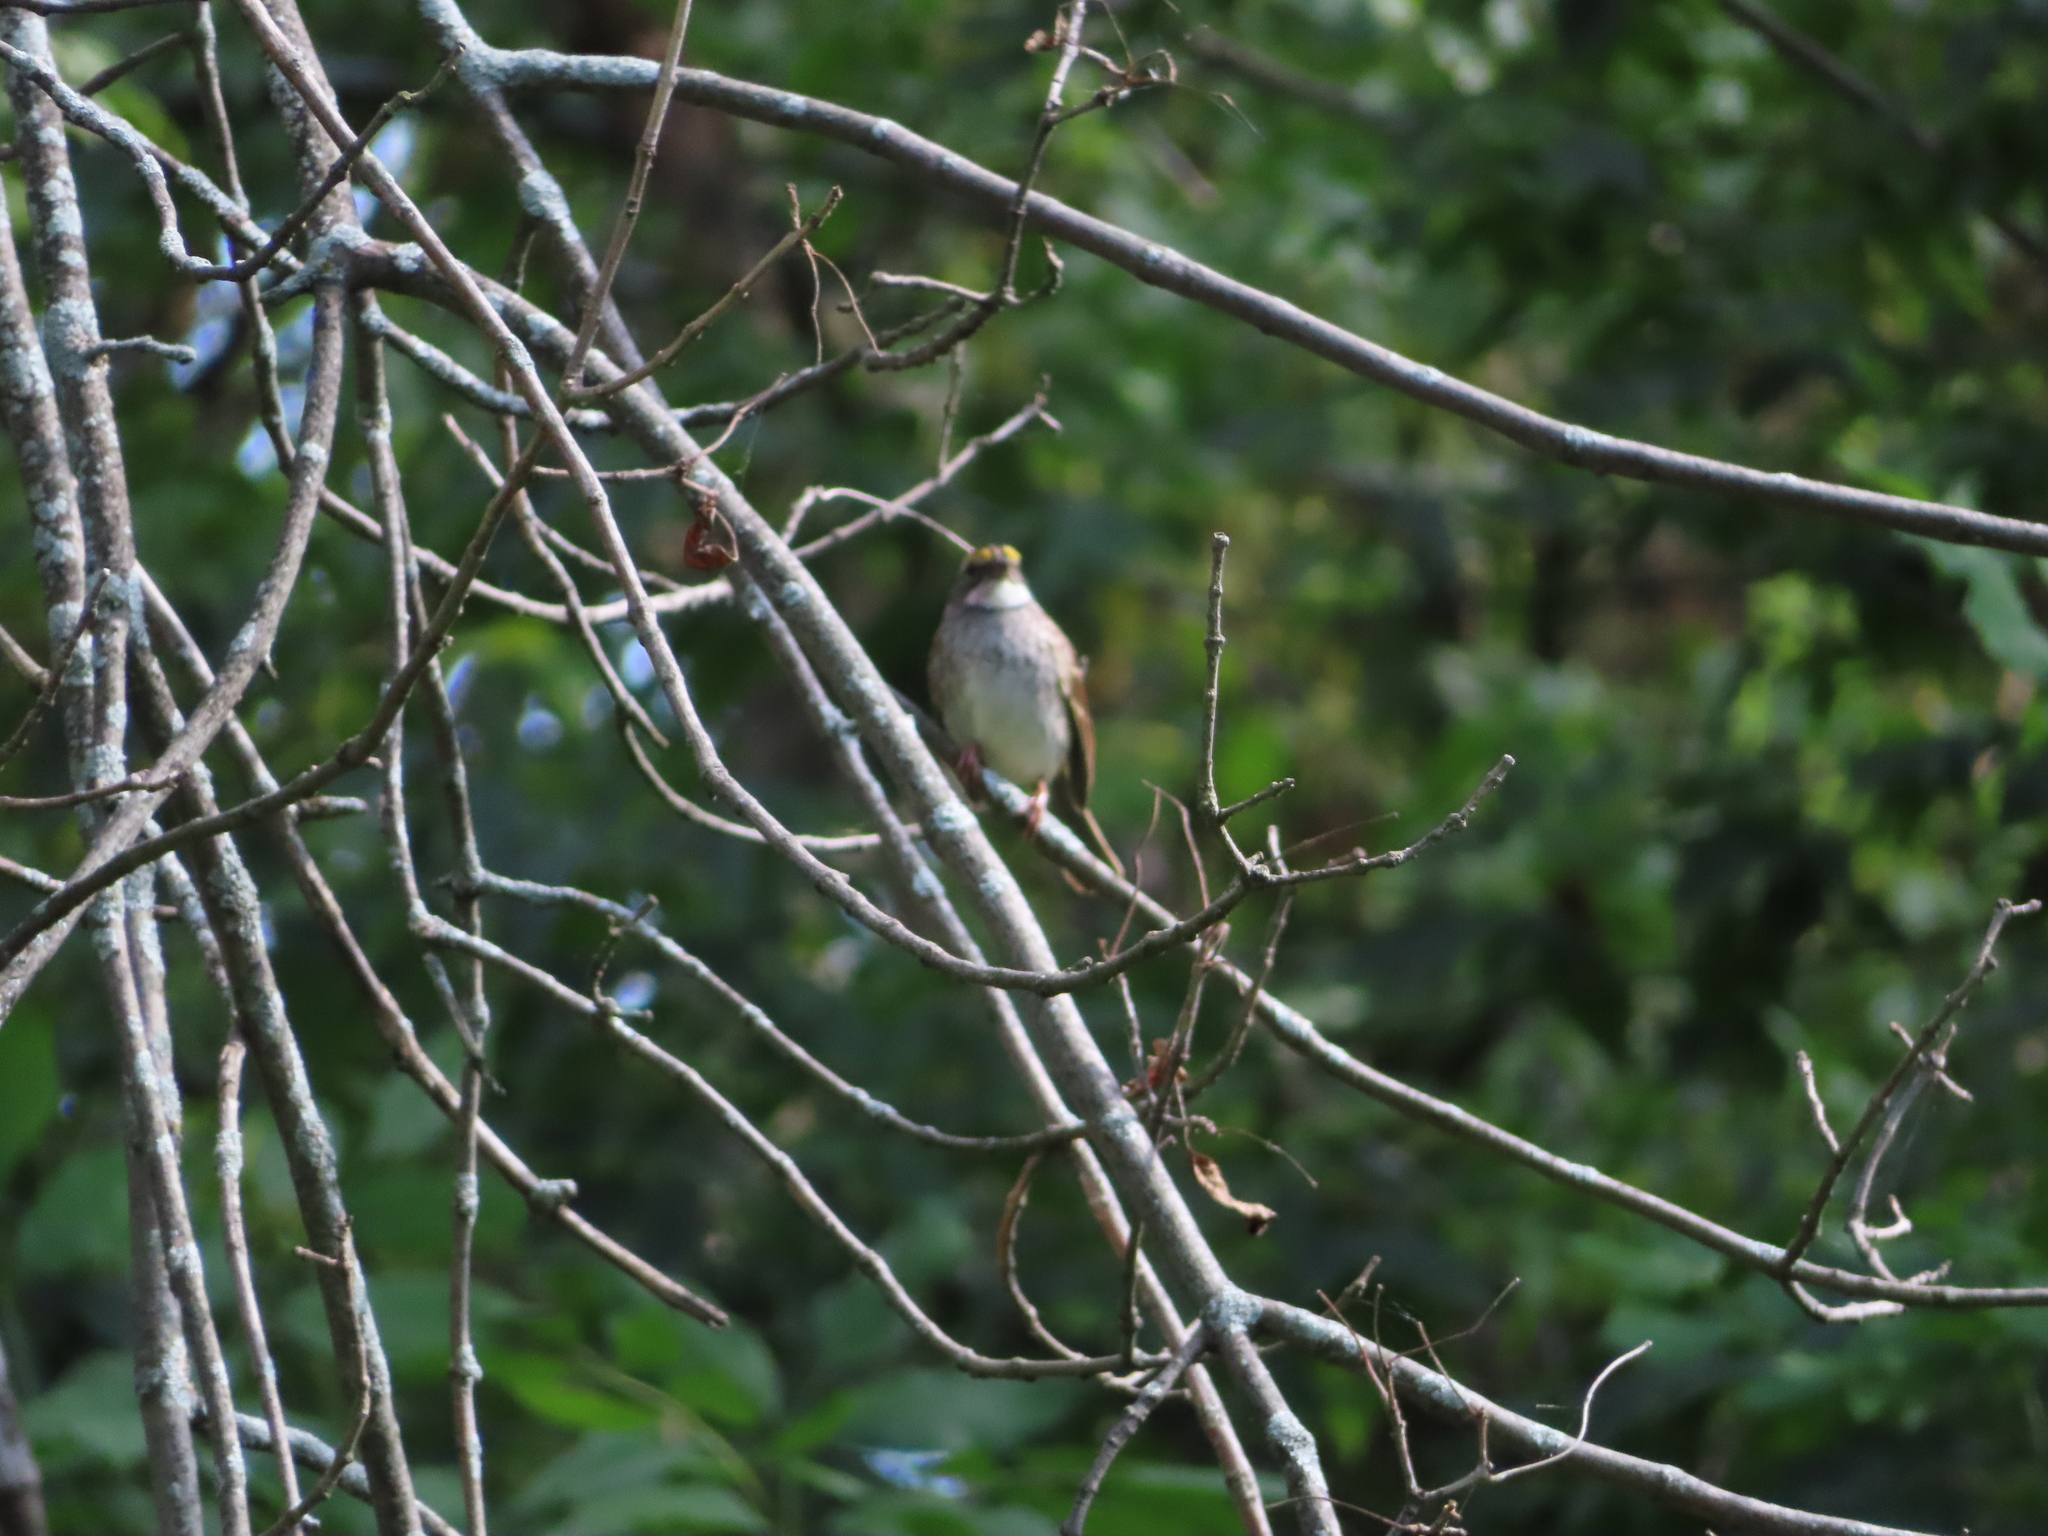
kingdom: Animalia
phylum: Chordata
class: Aves
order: Passeriformes
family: Passerellidae
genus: Zonotrichia
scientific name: Zonotrichia albicollis
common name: White-throated sparrow
